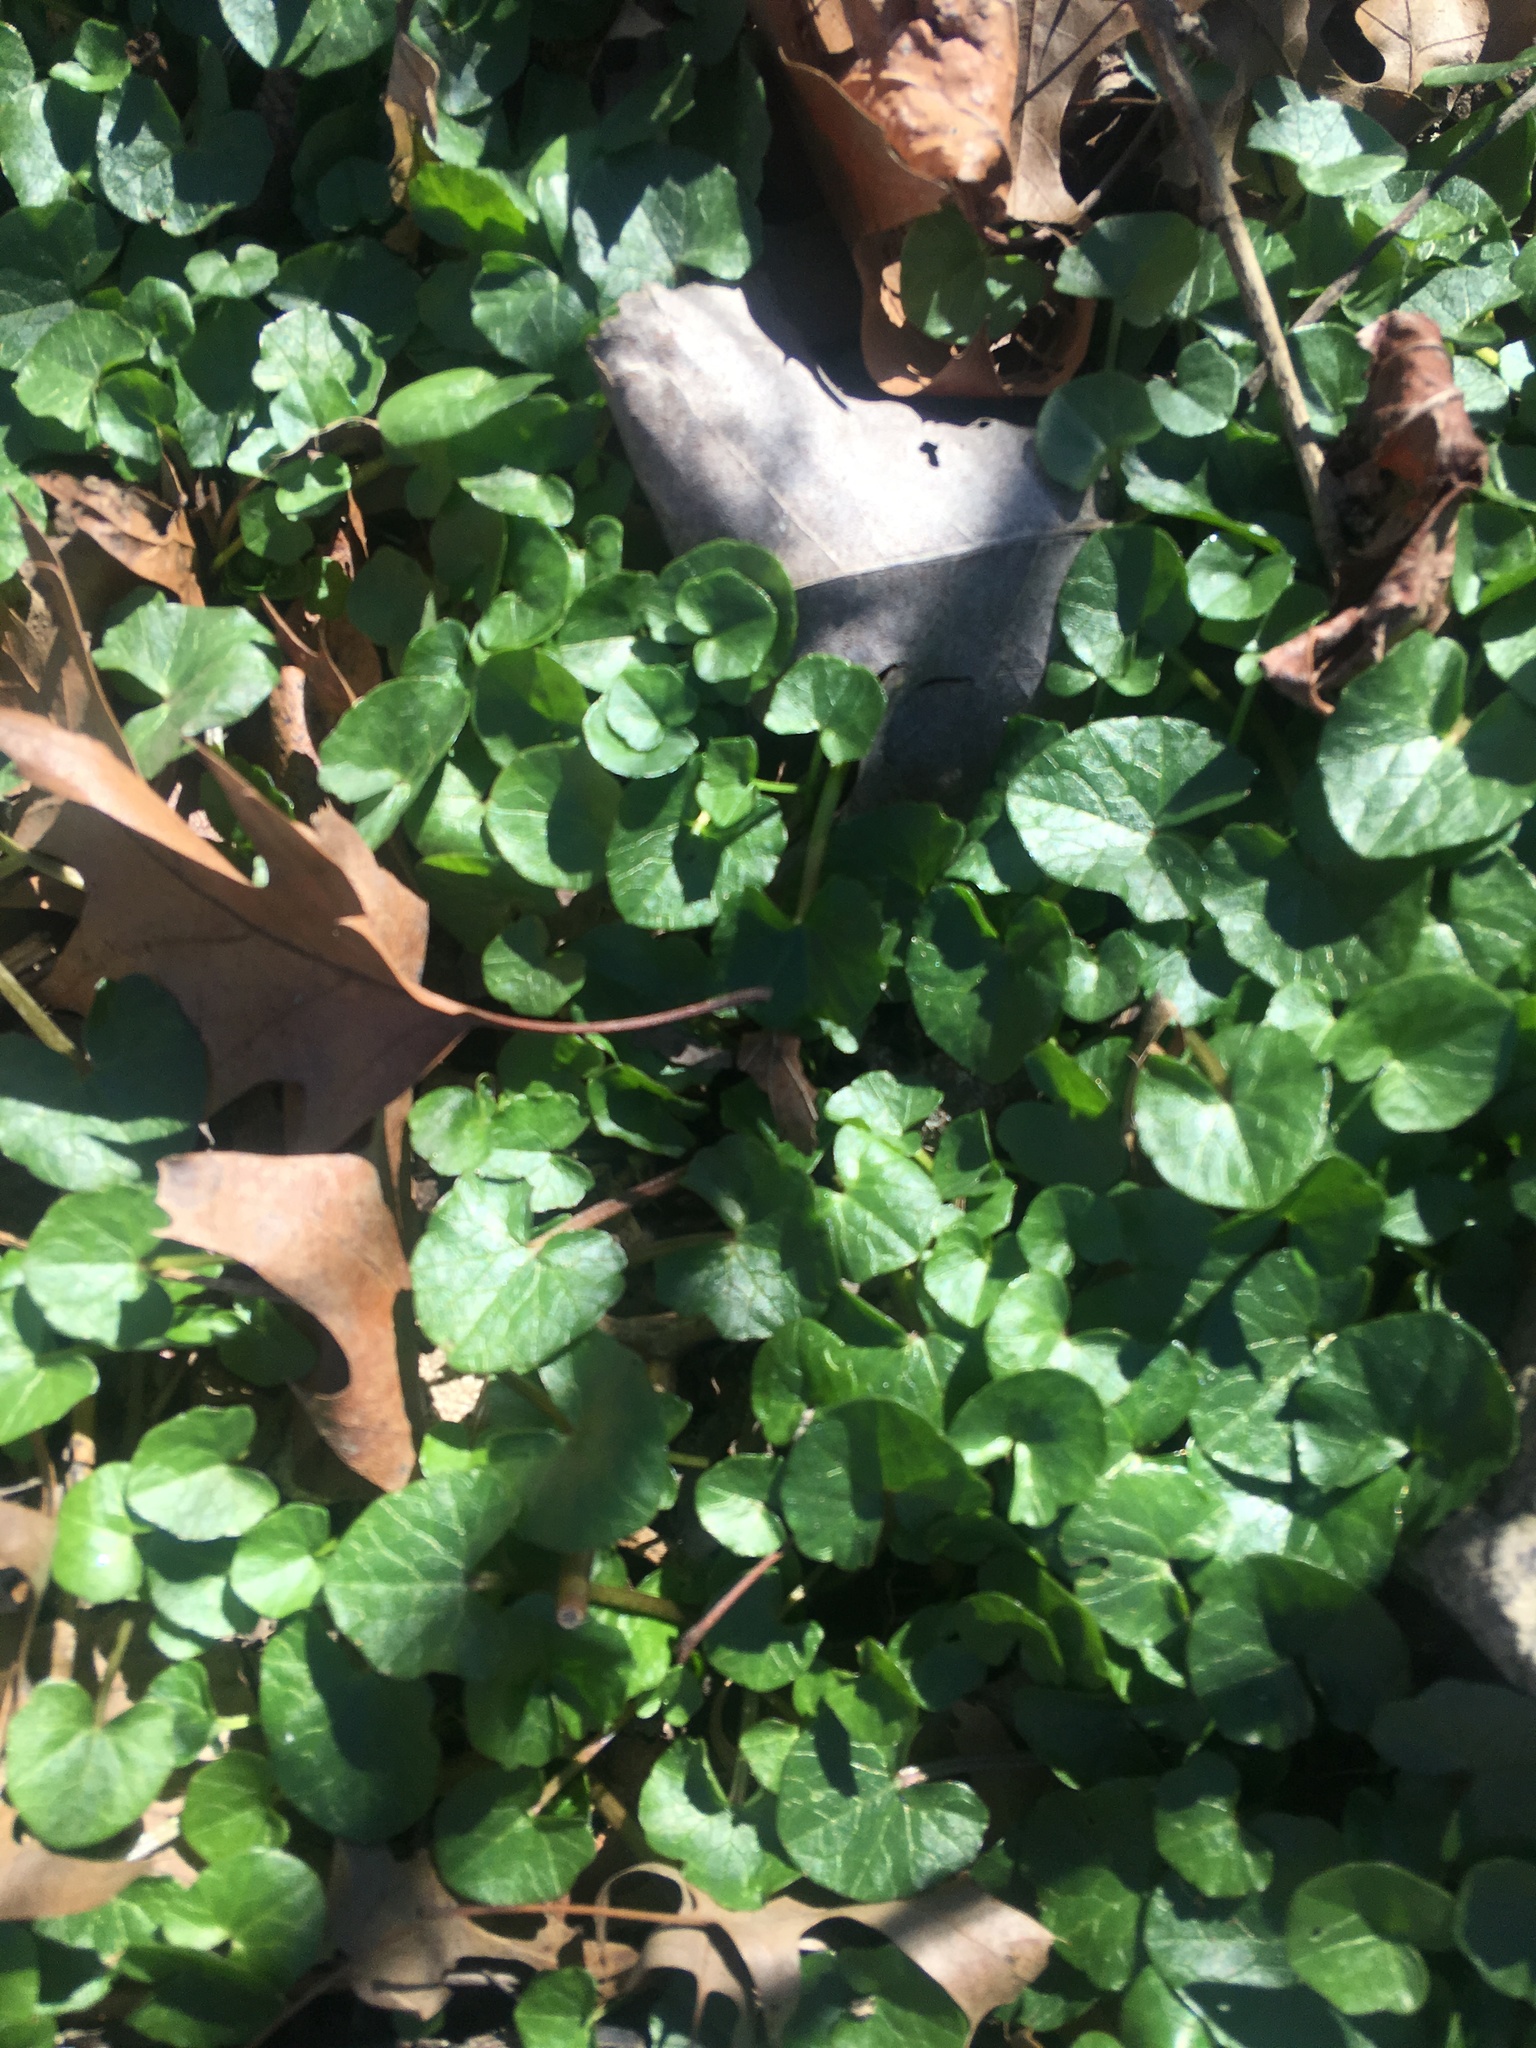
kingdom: Plantae
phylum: Tracheophyta
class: Magnoliopsida
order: Ranunculales
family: Ranunculaceae
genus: Ficaria
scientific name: Ficaria verna
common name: Lesser celandine
